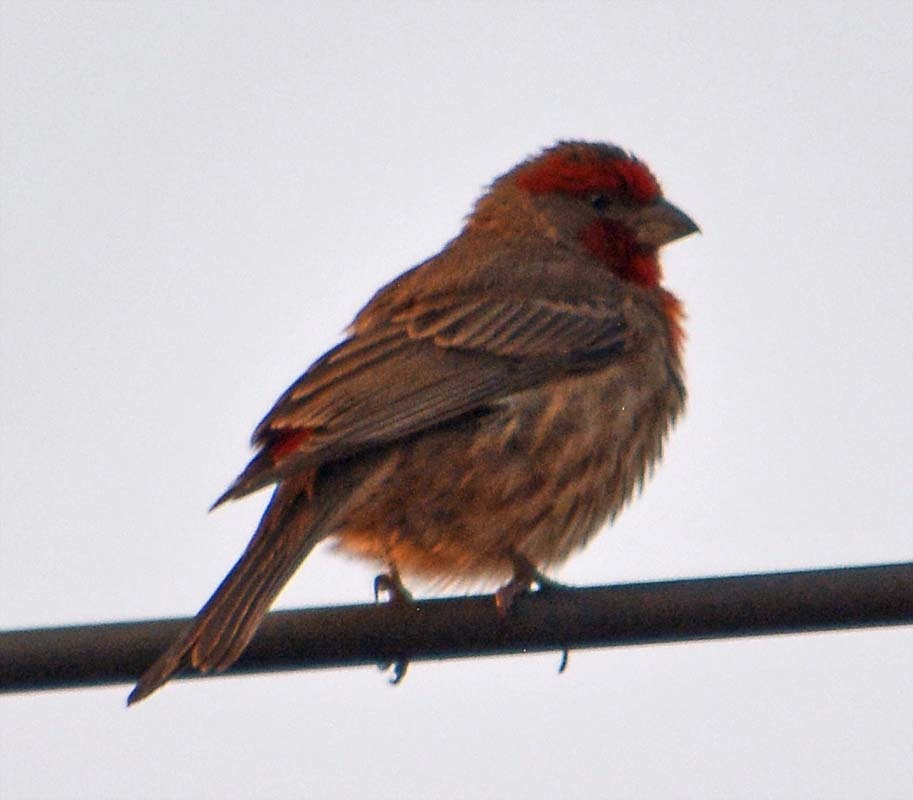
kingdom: Animalia
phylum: Chordata
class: Aves
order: Passeriformes
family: Fringillidae
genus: Haemorhous
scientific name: Haemorhous mexicanus
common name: House finch
